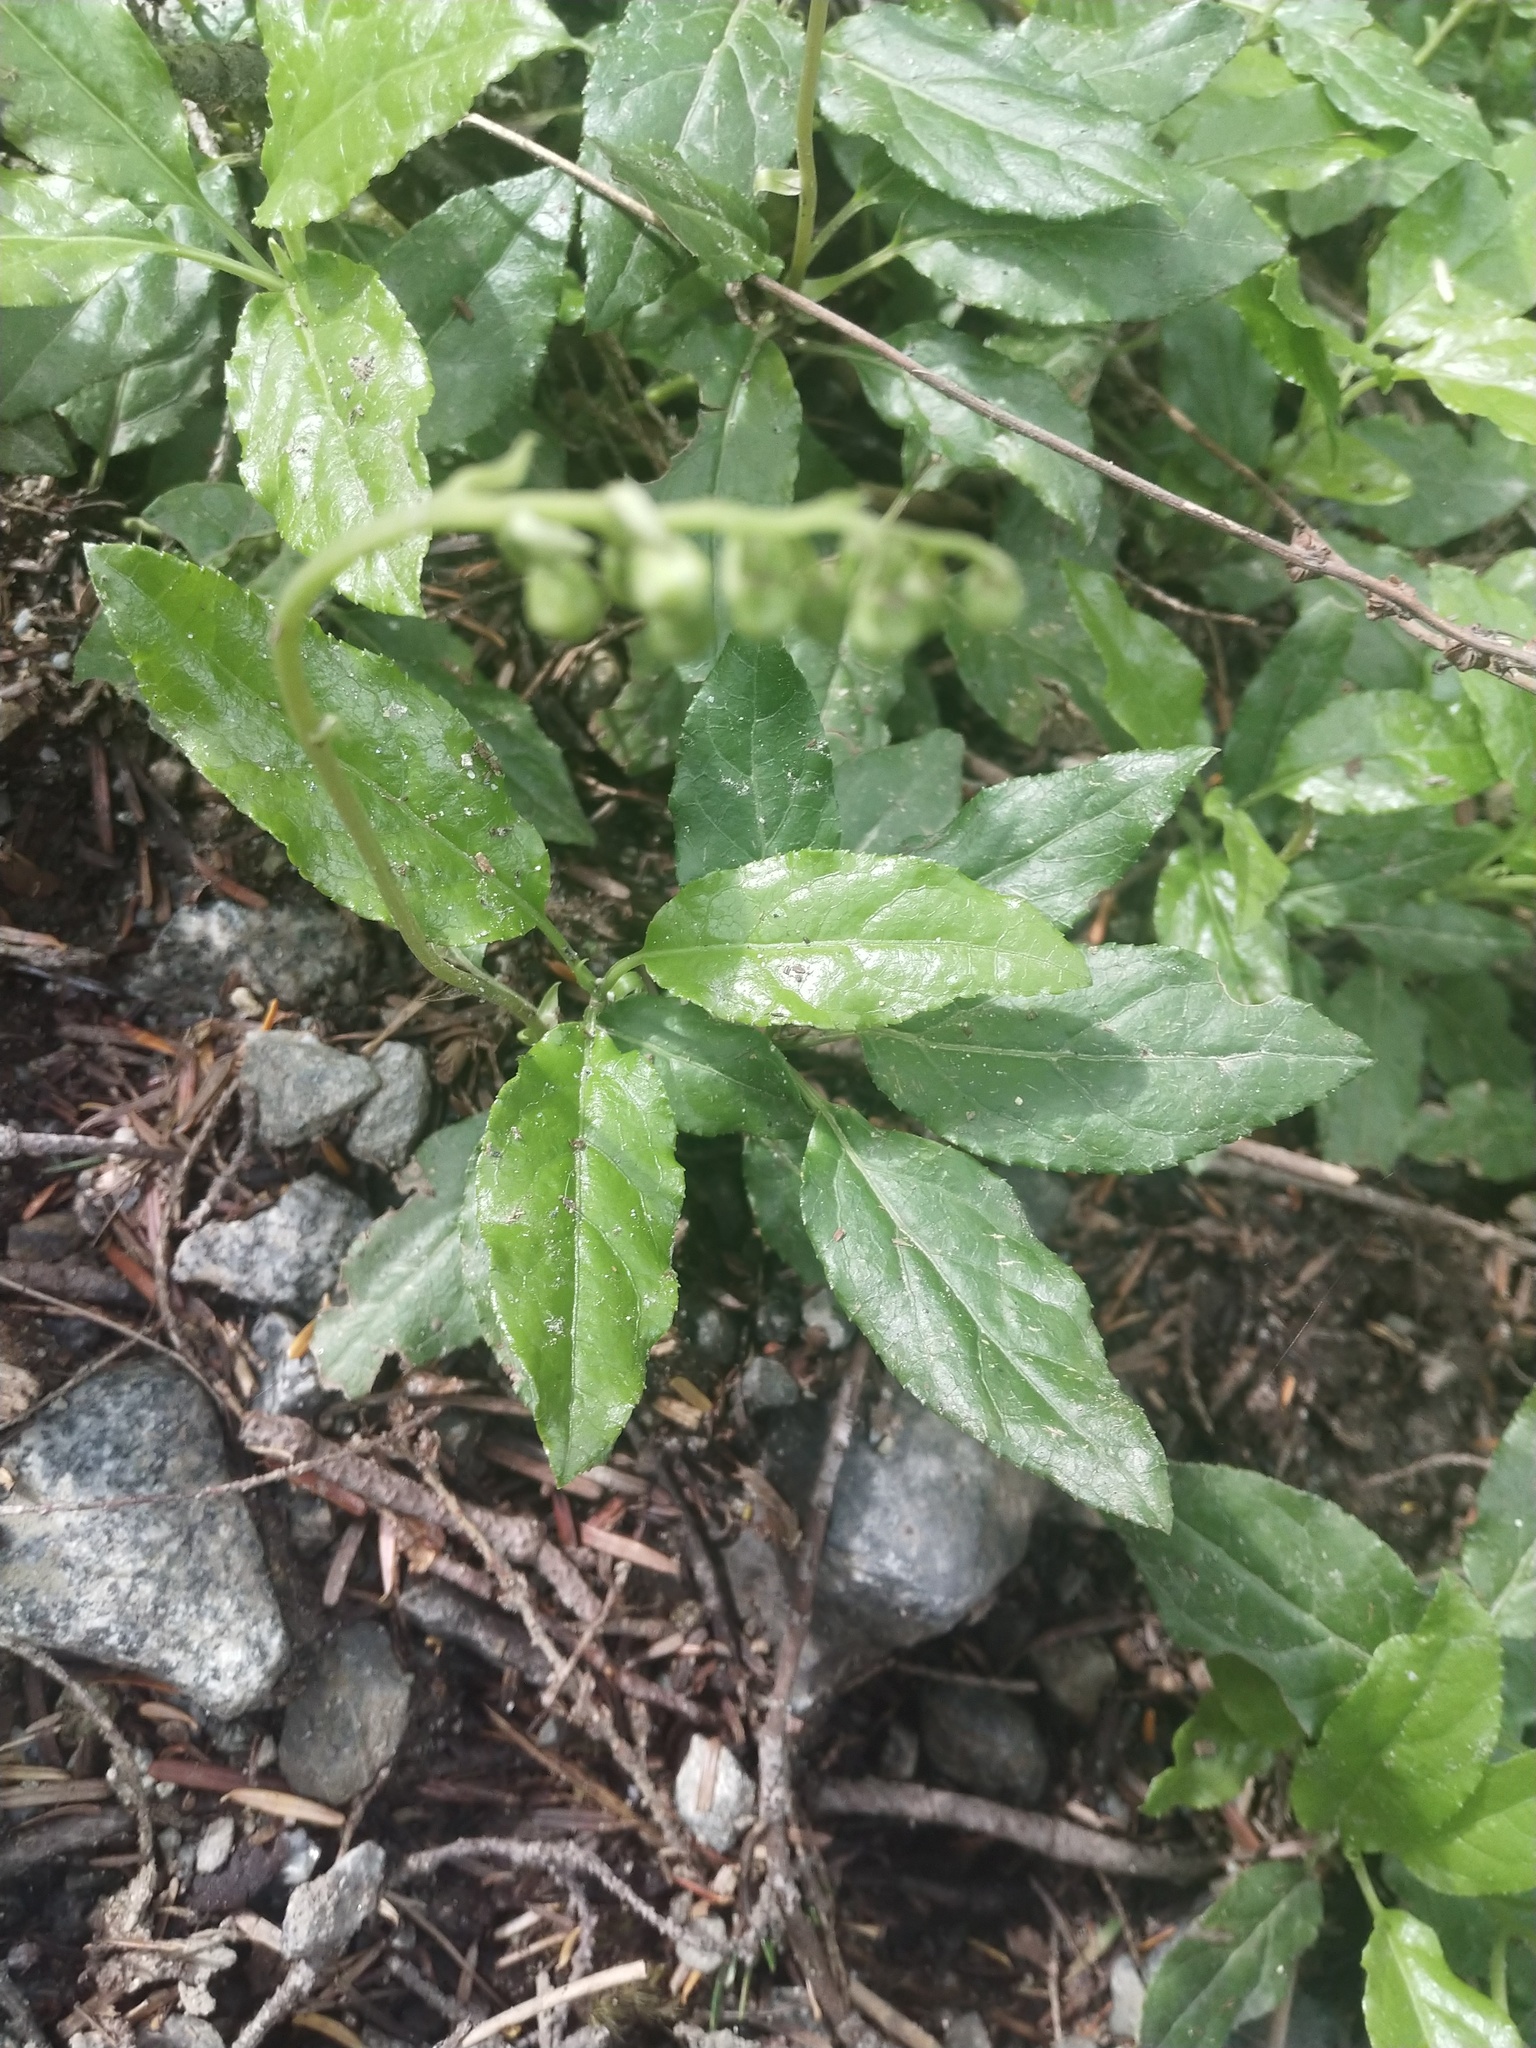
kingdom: Plantae
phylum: Tracheophyta
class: Magnoliopsida
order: Ericales
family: Ericaceae
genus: Orthilia
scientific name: Orthilia secunda
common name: One-sided orthilia
